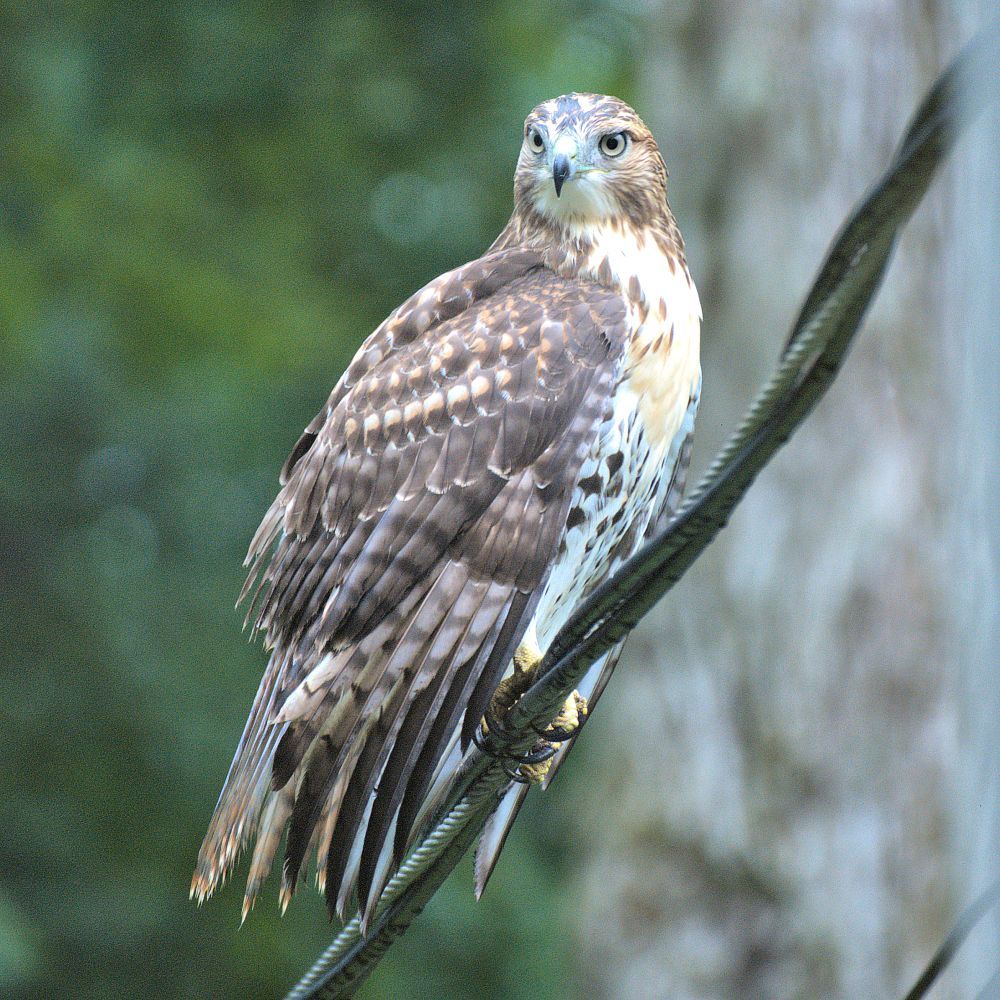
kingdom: Animalia
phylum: Chordata
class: Aves
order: Accipitriformes
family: Accipitridae
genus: Buteo
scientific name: Buteo jamaicensis
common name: Red-tailed hawk
